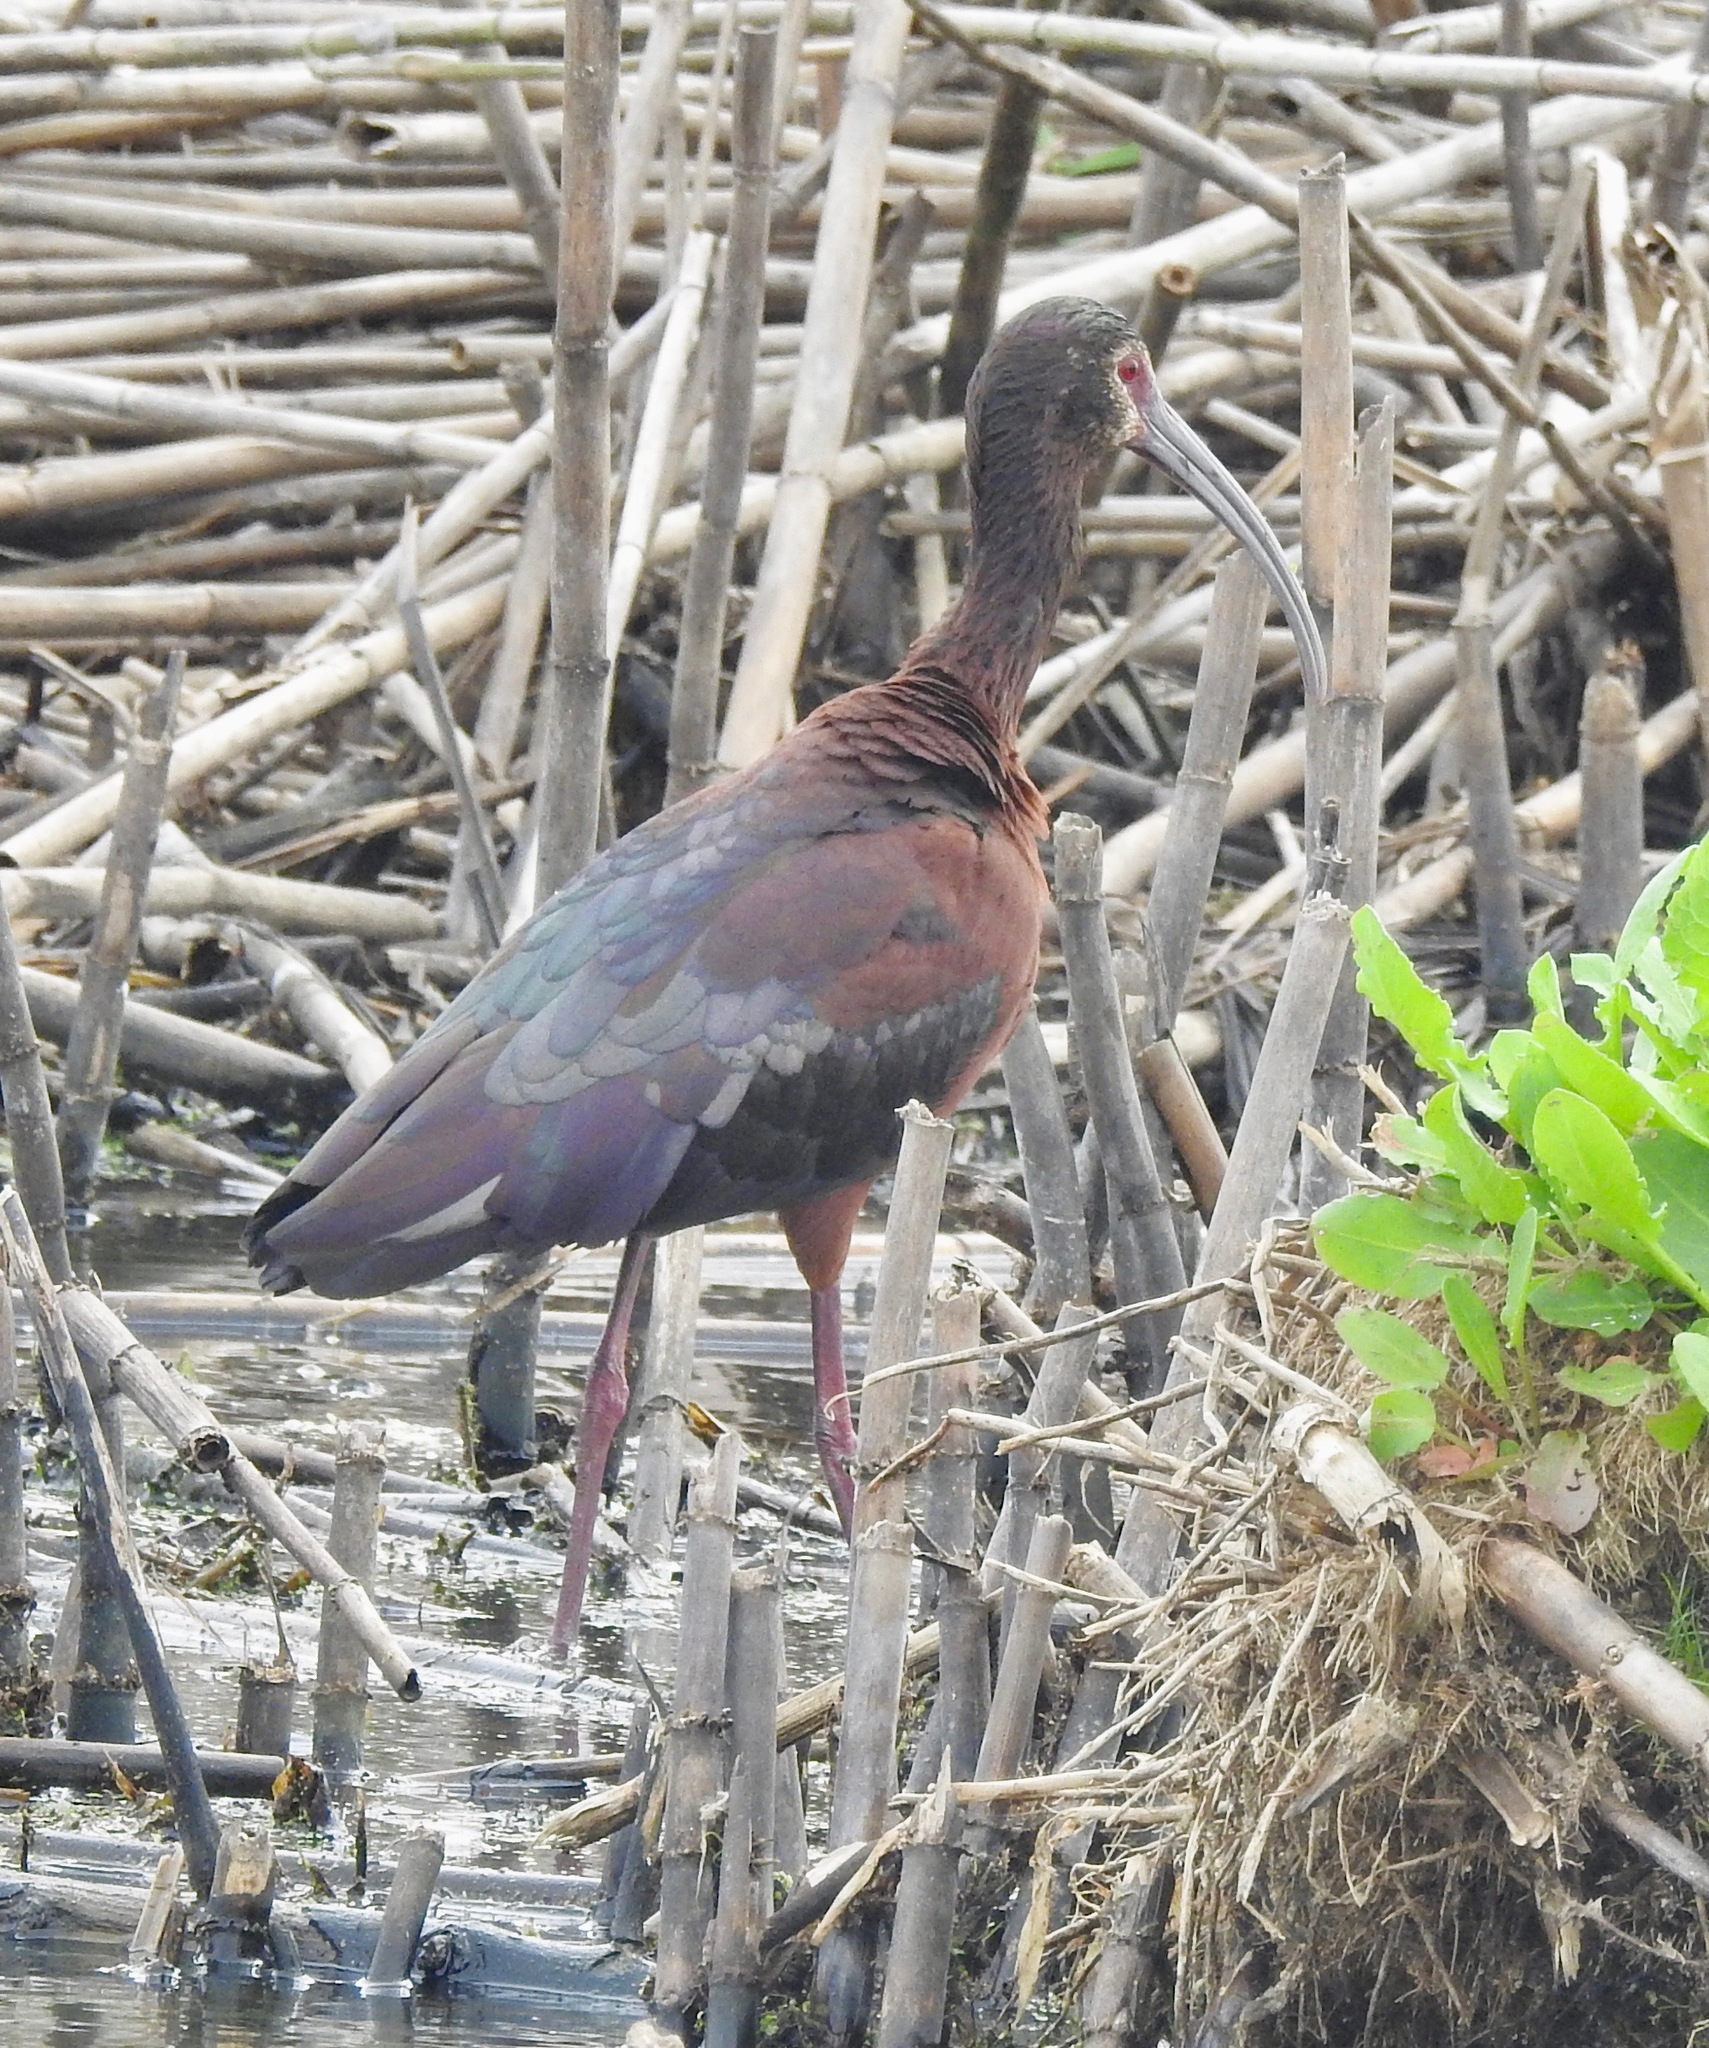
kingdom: Animalia
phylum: Chordata
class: Aves
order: Pelecaniformes
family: Threskiornithidae
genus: Plegadis
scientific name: Plegadis chihi
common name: White-faced ibis
